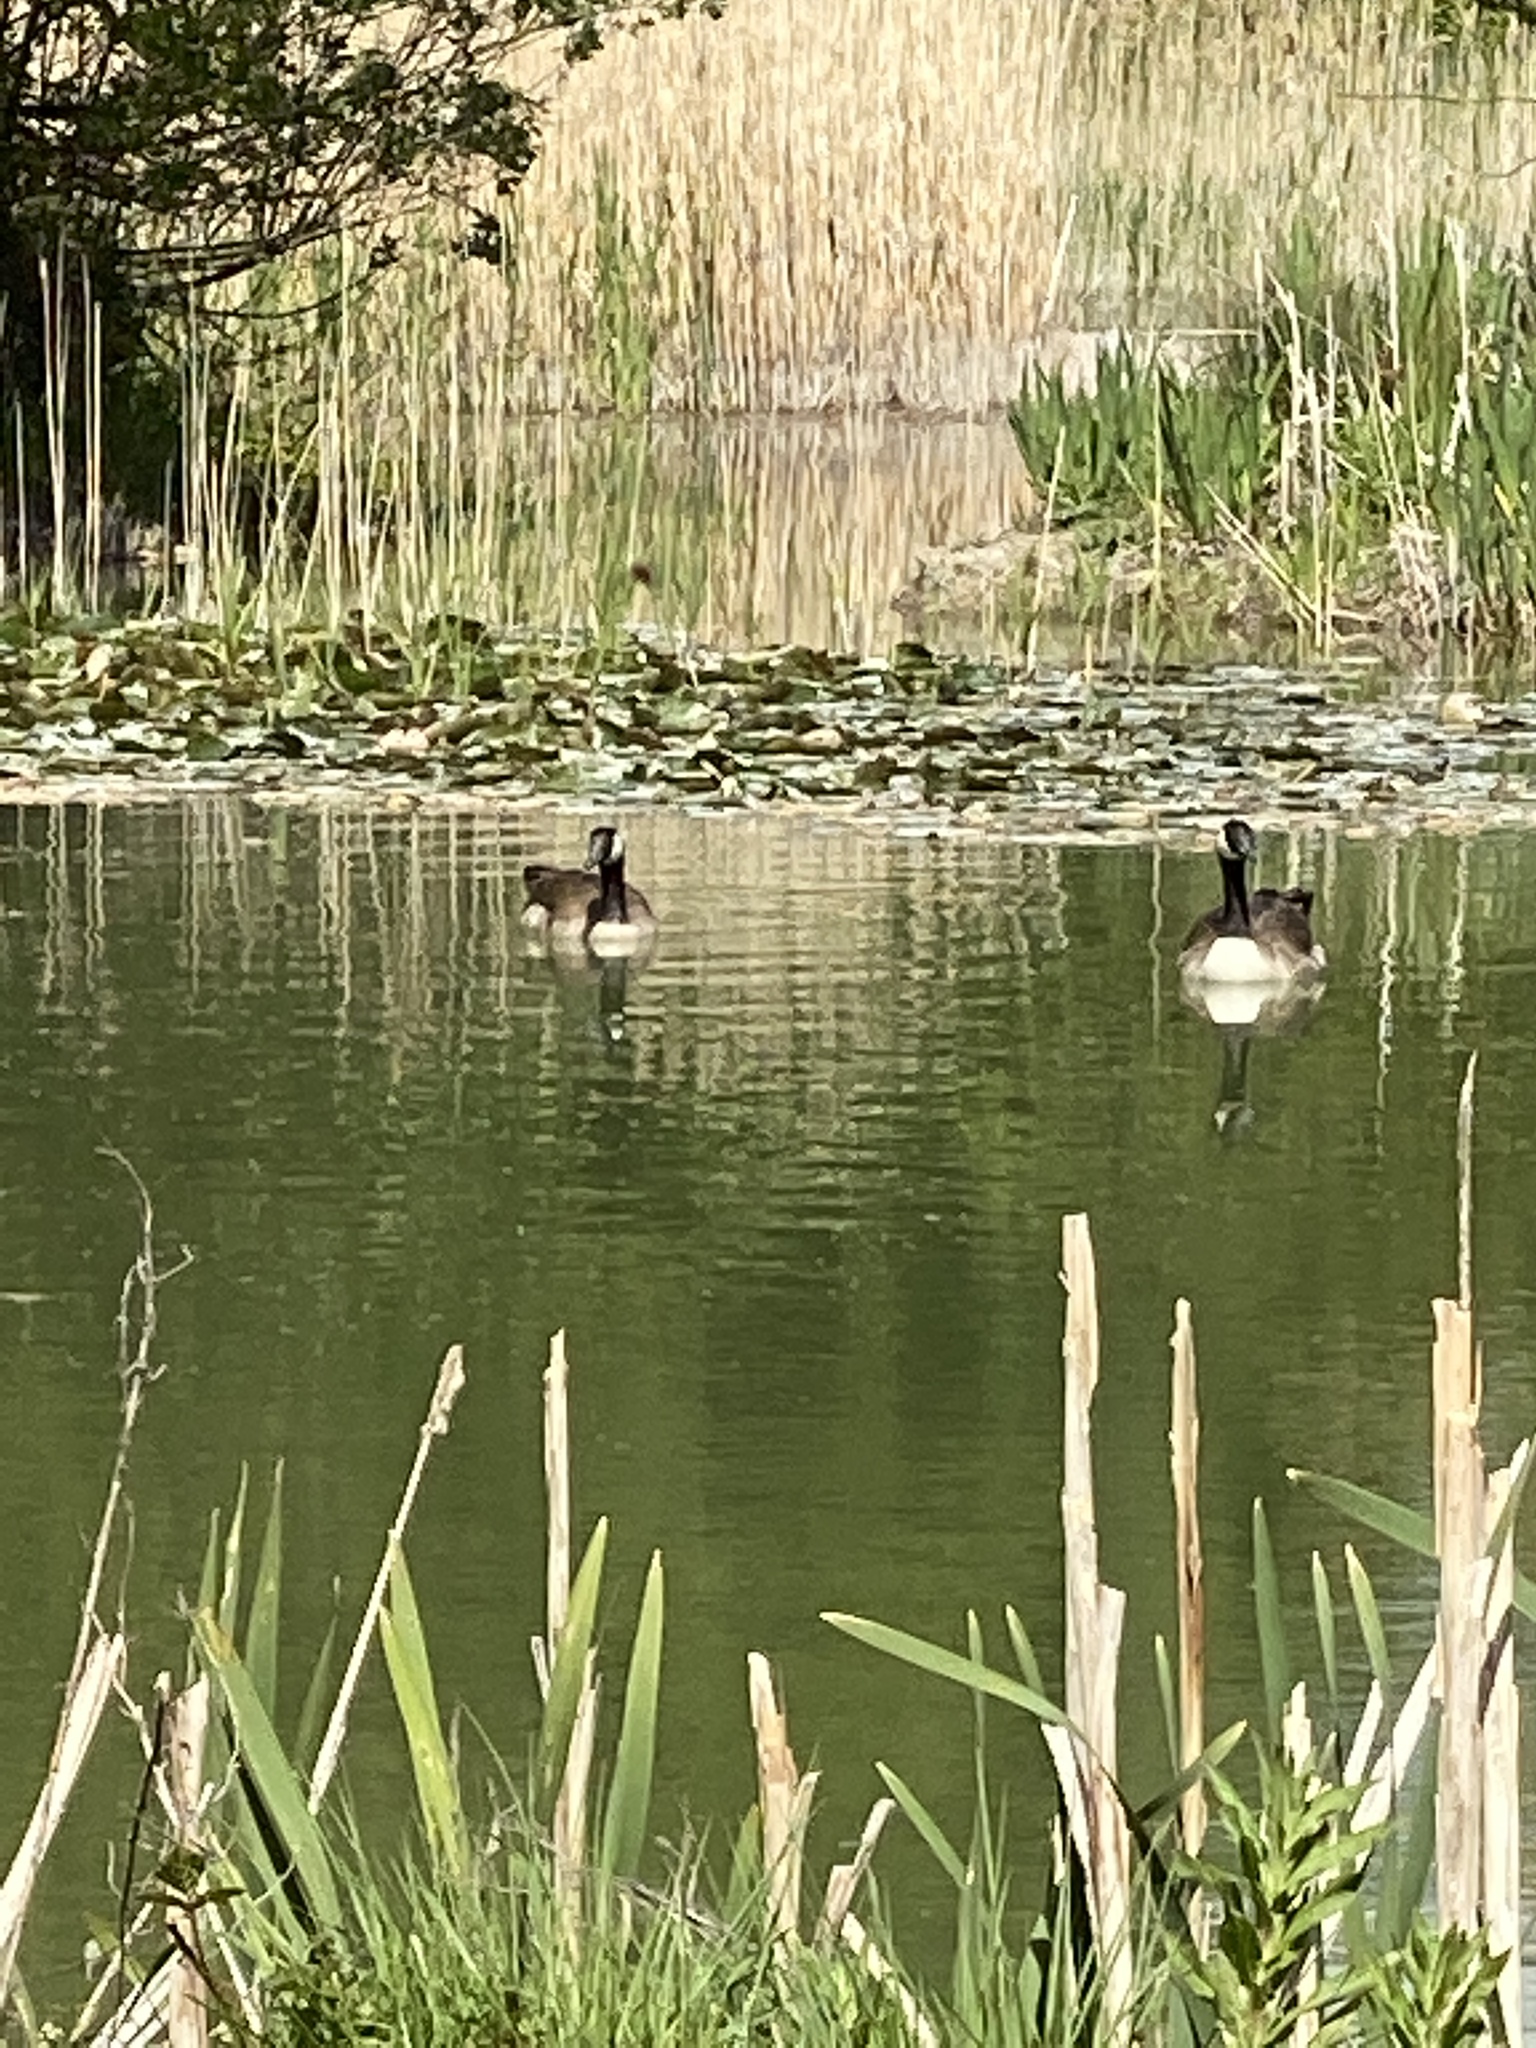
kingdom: Animalia
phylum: Chordata
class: Aves
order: Anseriformes
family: Anatidae
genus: Branta
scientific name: Branta canadensis
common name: Canada goose
